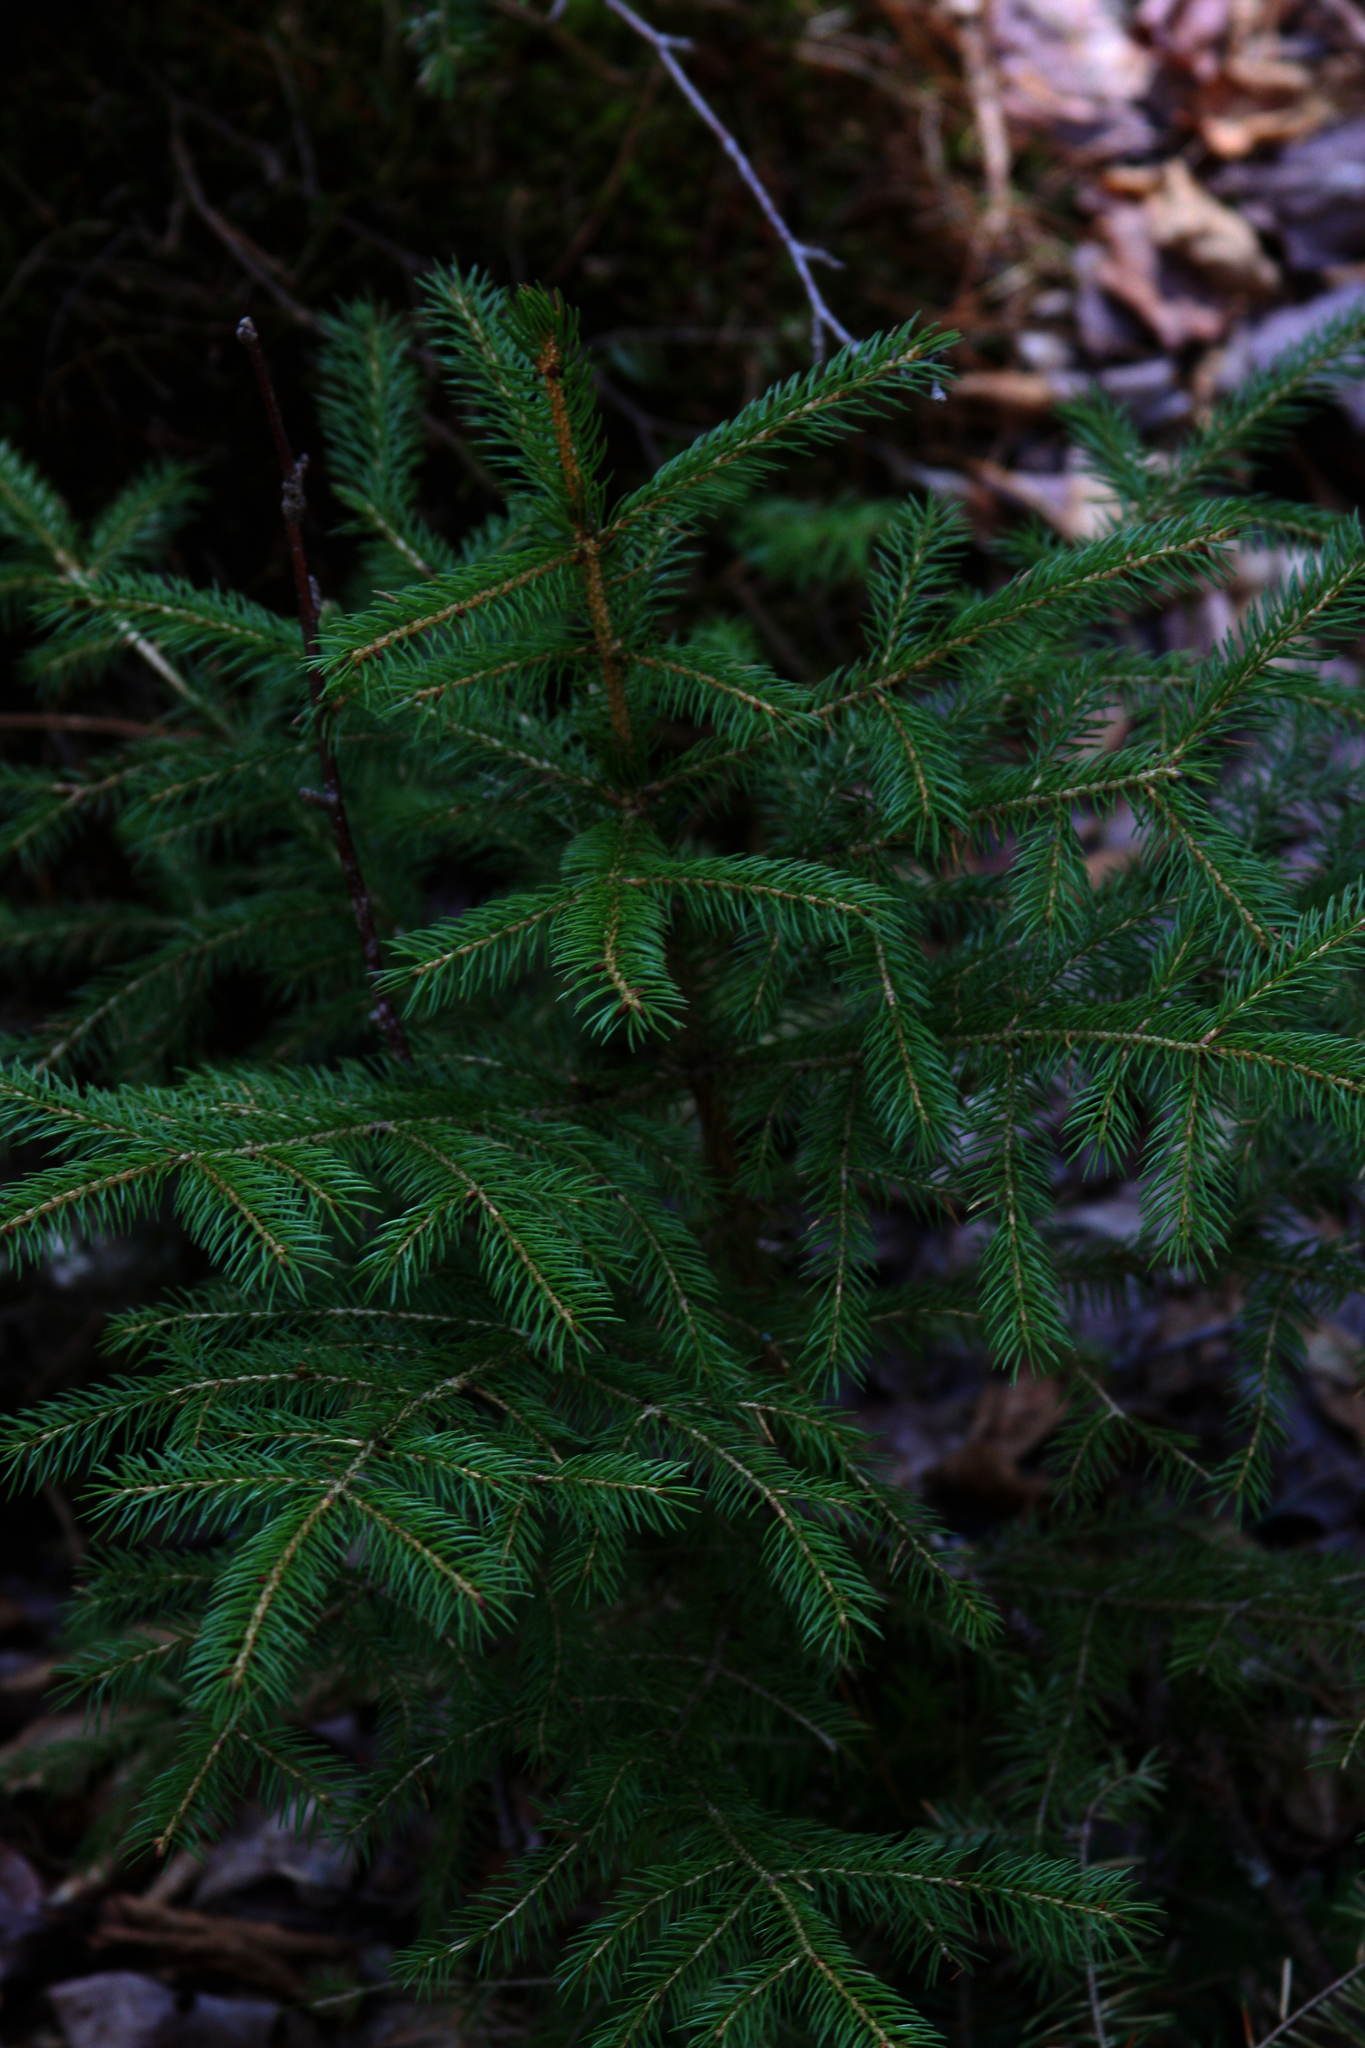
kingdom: Plantae
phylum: Tracheophyta
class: Pinopsida
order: Pinales
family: Pinaceae
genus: Picea
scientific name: Picea rubens
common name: Red spruce
